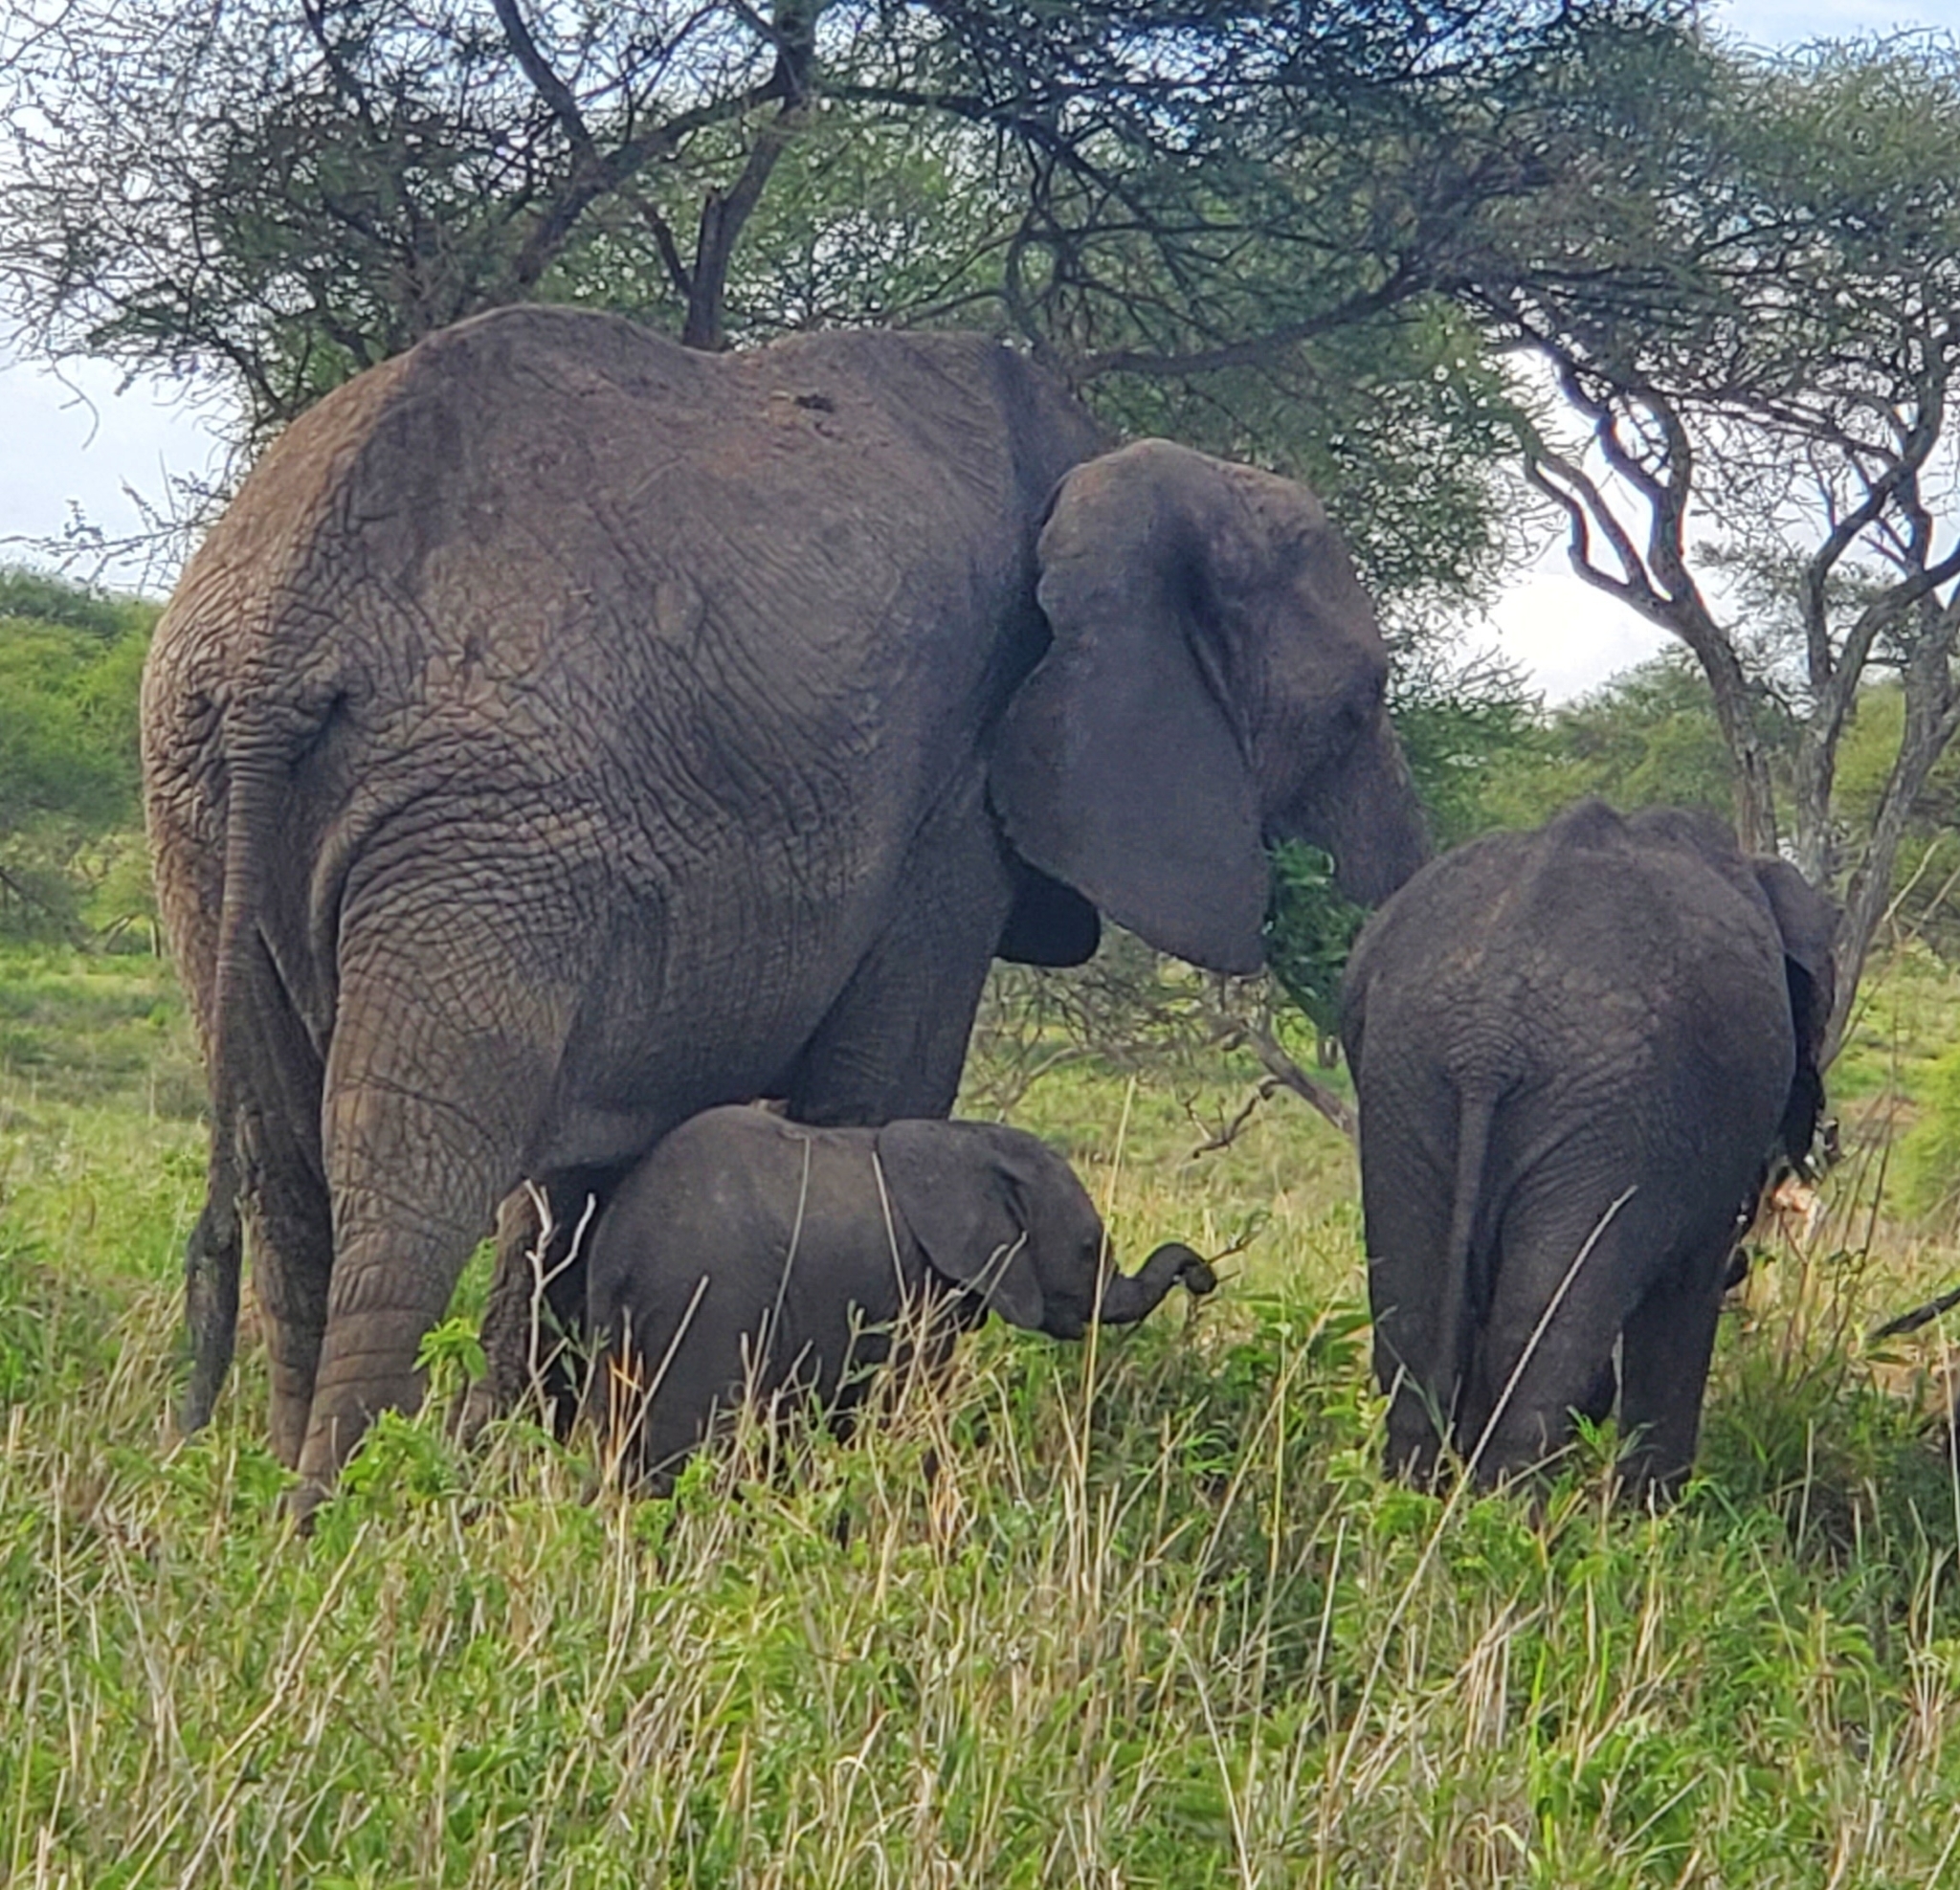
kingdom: Animalia
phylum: Chordata
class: Mammalia
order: Proboscidea
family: Elephantidae
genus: Loxodonta
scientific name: Loxodonta africana
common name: African elephant
